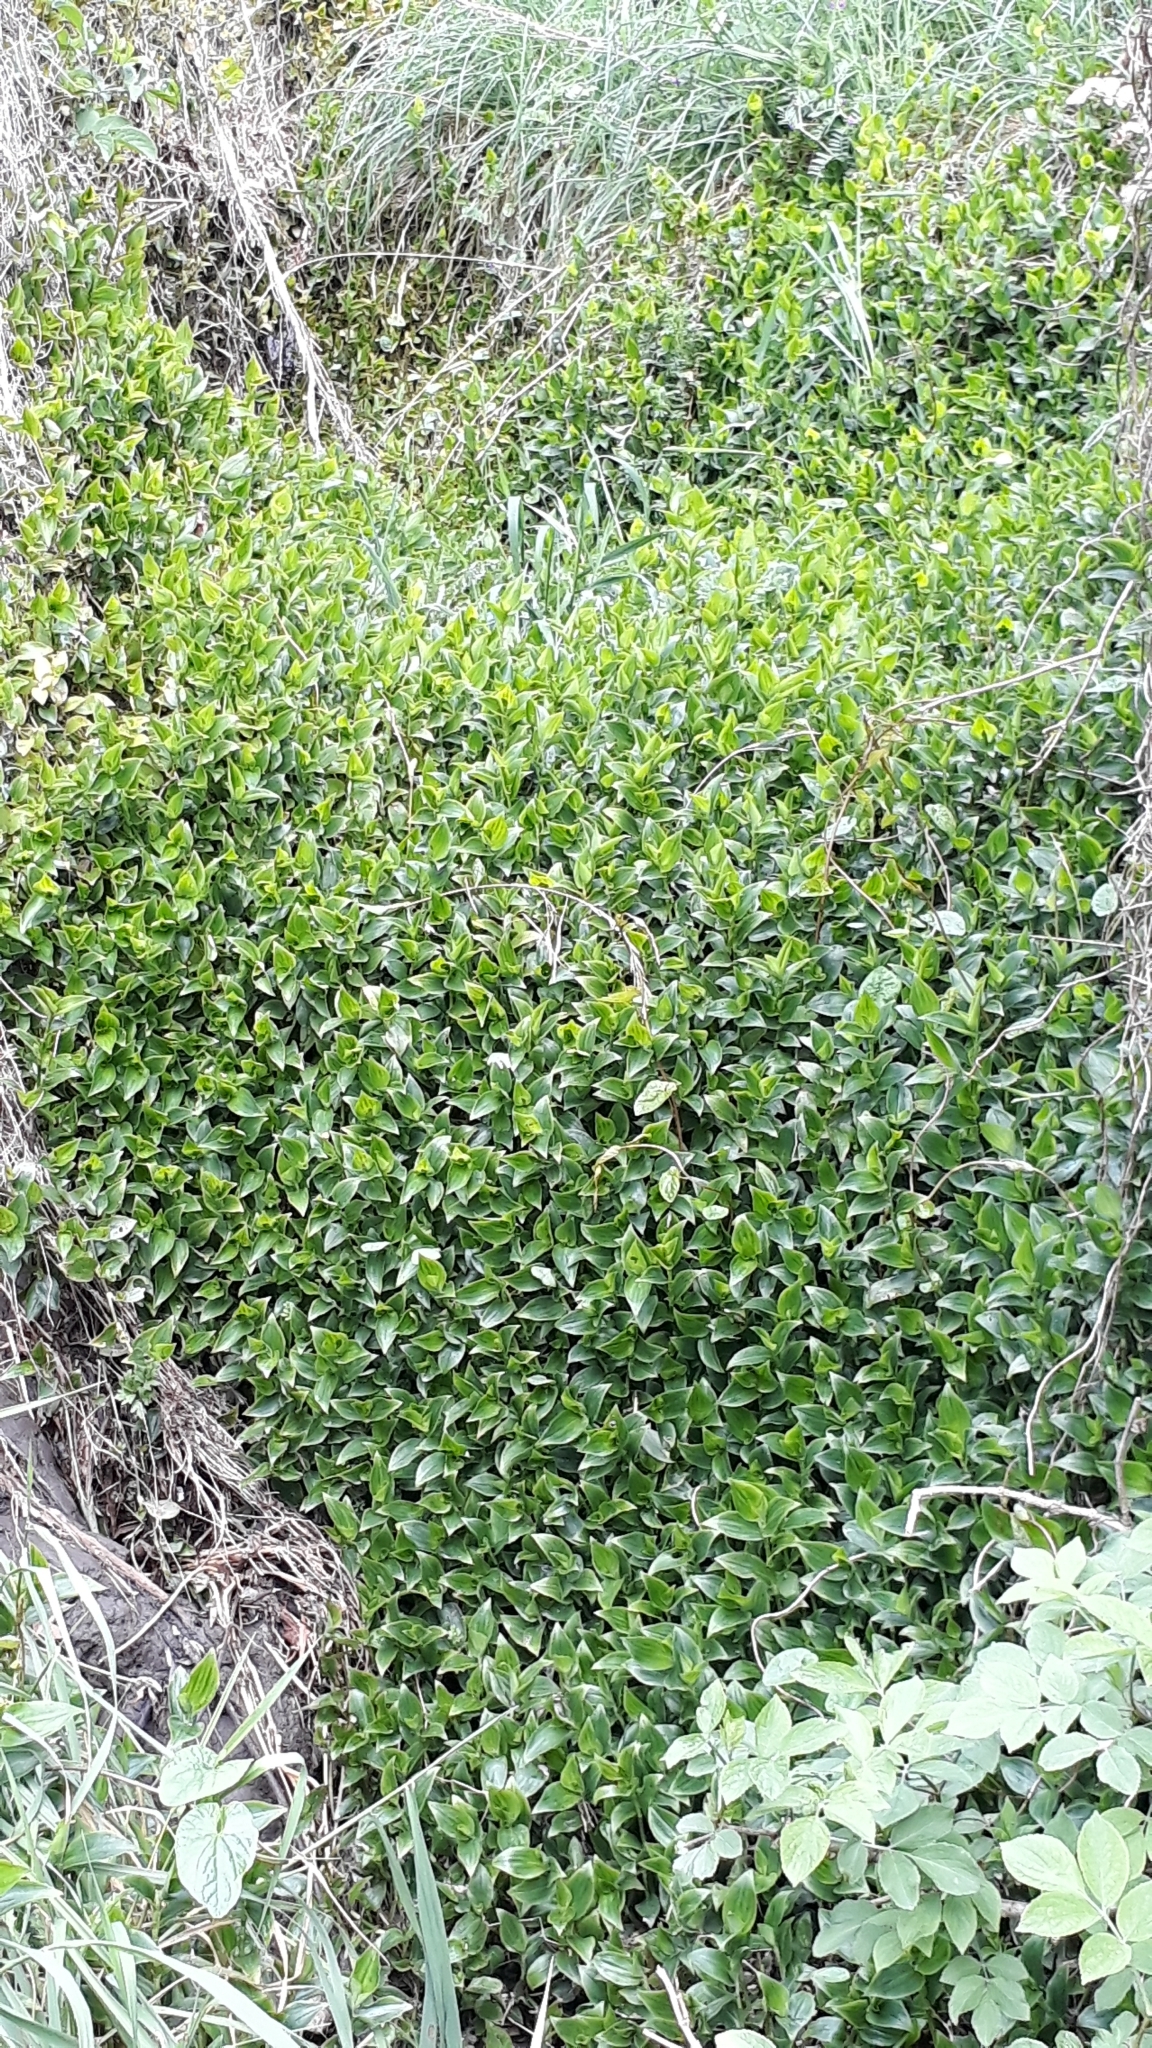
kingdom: Plantae
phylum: Tracheophyta
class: Liliopsida
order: Commelinales
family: Commelinaceae
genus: Tradescantia
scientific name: Tradescantia fluminensis
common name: Wandering-jew
